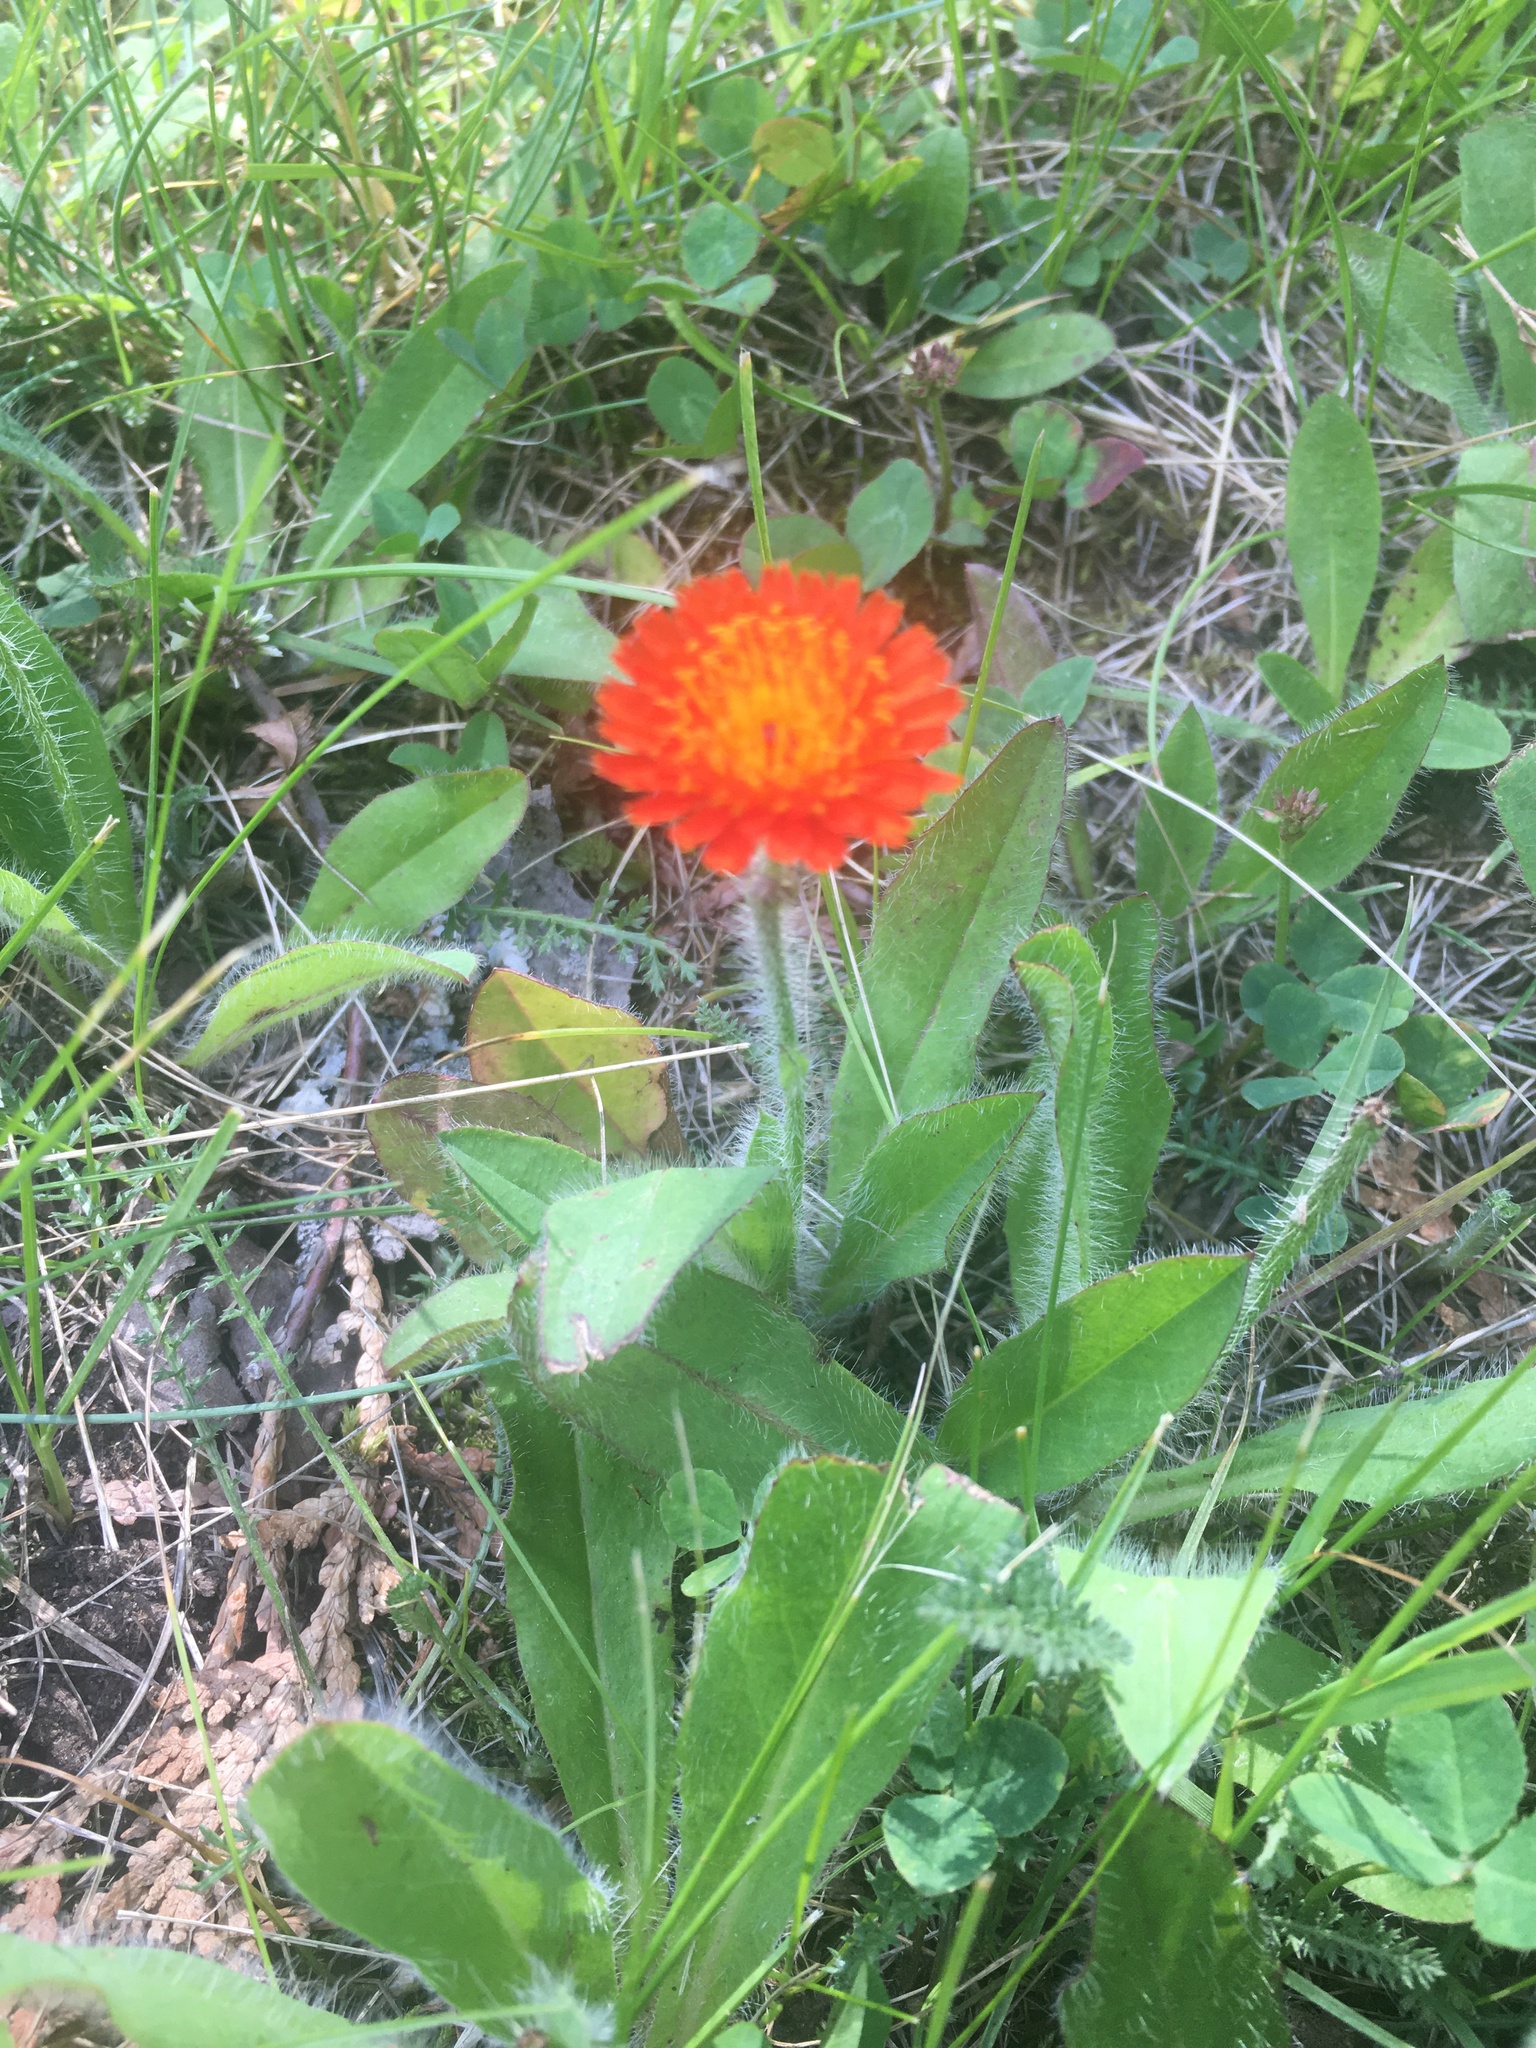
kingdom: Plantae
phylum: Tracheophyta
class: Magnoliopsida
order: Asterales
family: Asteraceae
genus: Pilosella
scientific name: Pilosella aurantiaca
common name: Fox-and-cubs
